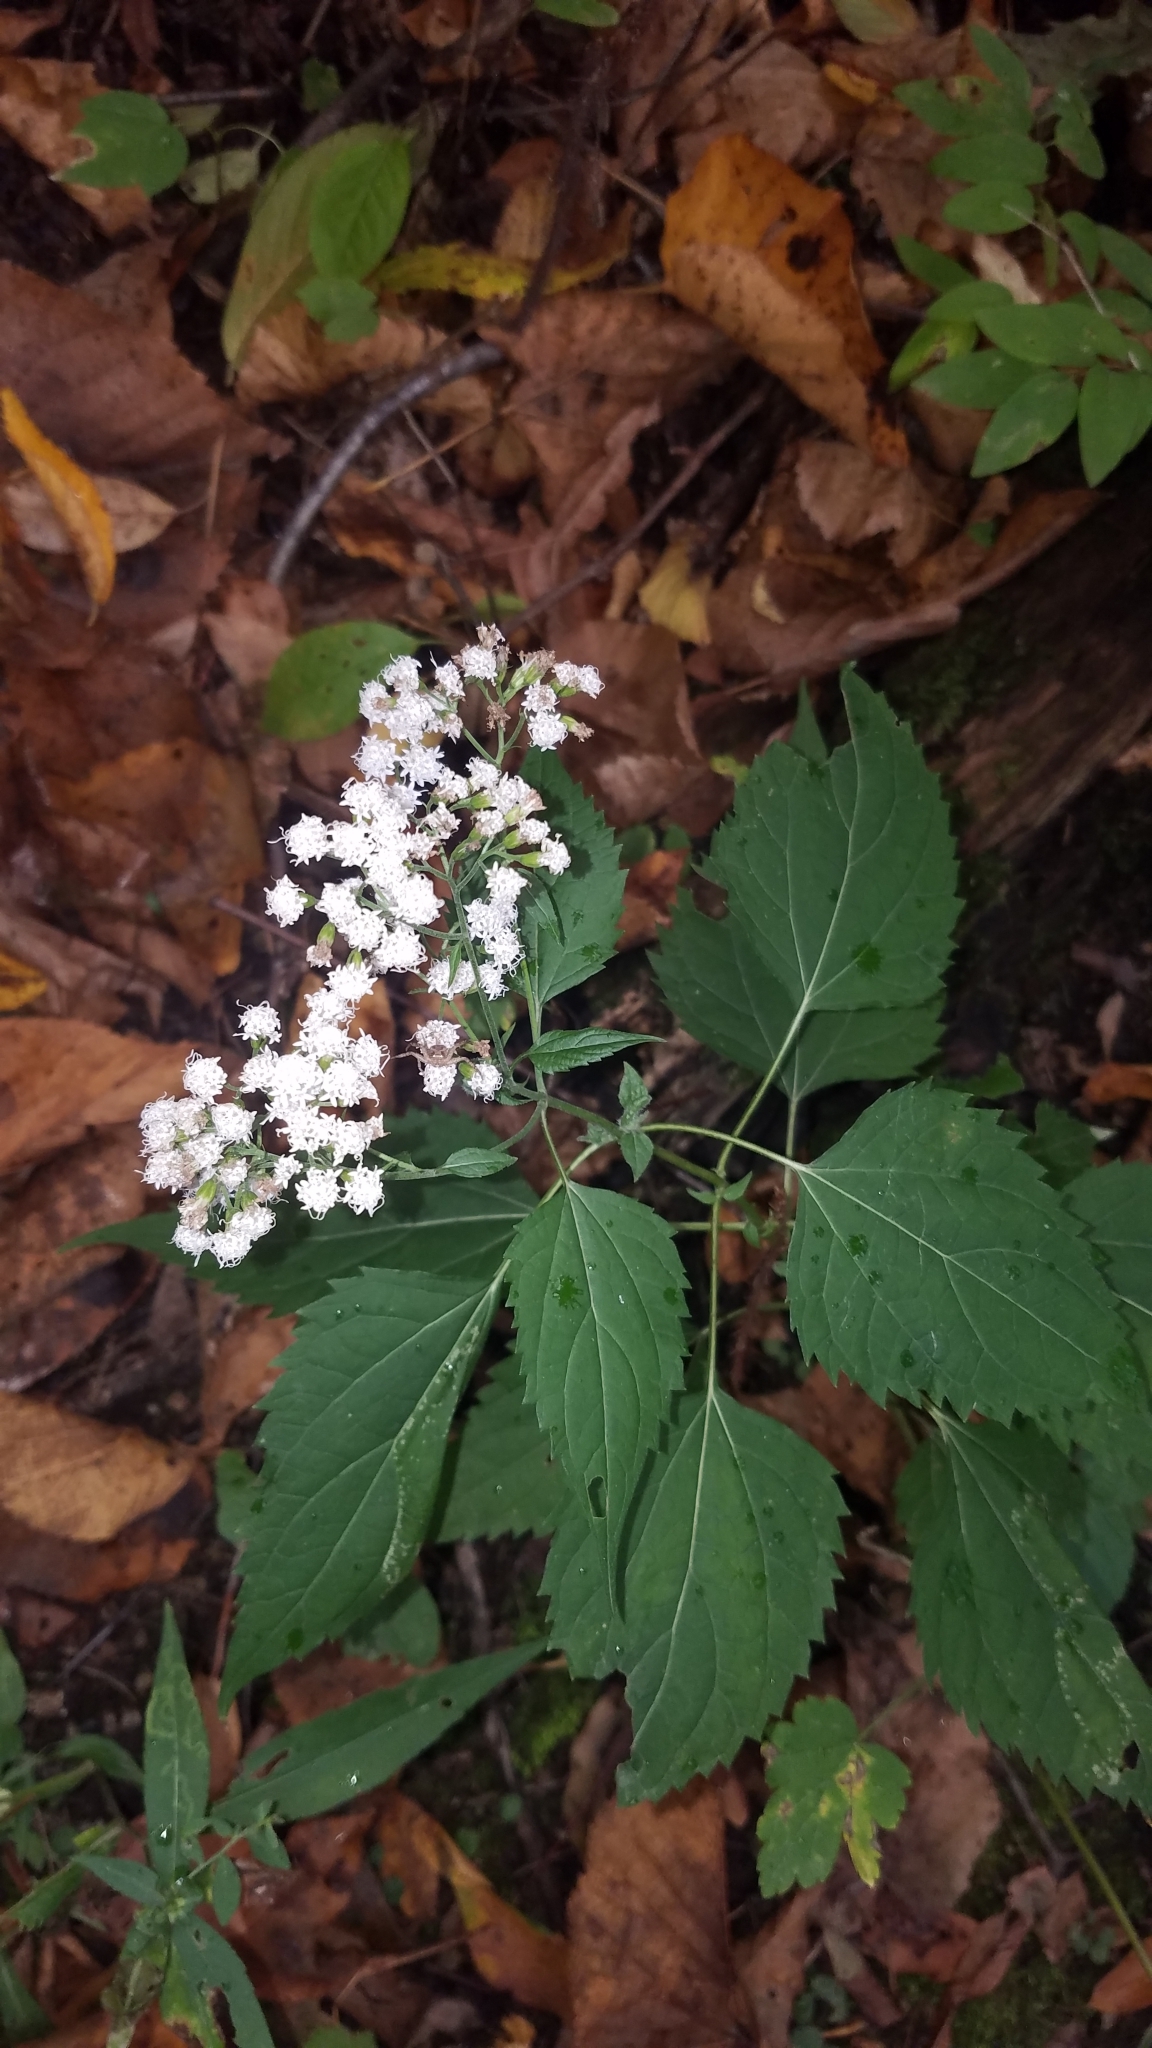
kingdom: Plantae
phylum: Tracheophyta
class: Magnoliopsida
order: Asterales
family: Asteraceae
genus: Ageratina
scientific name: Ageratina altissima
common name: White snakeroot
